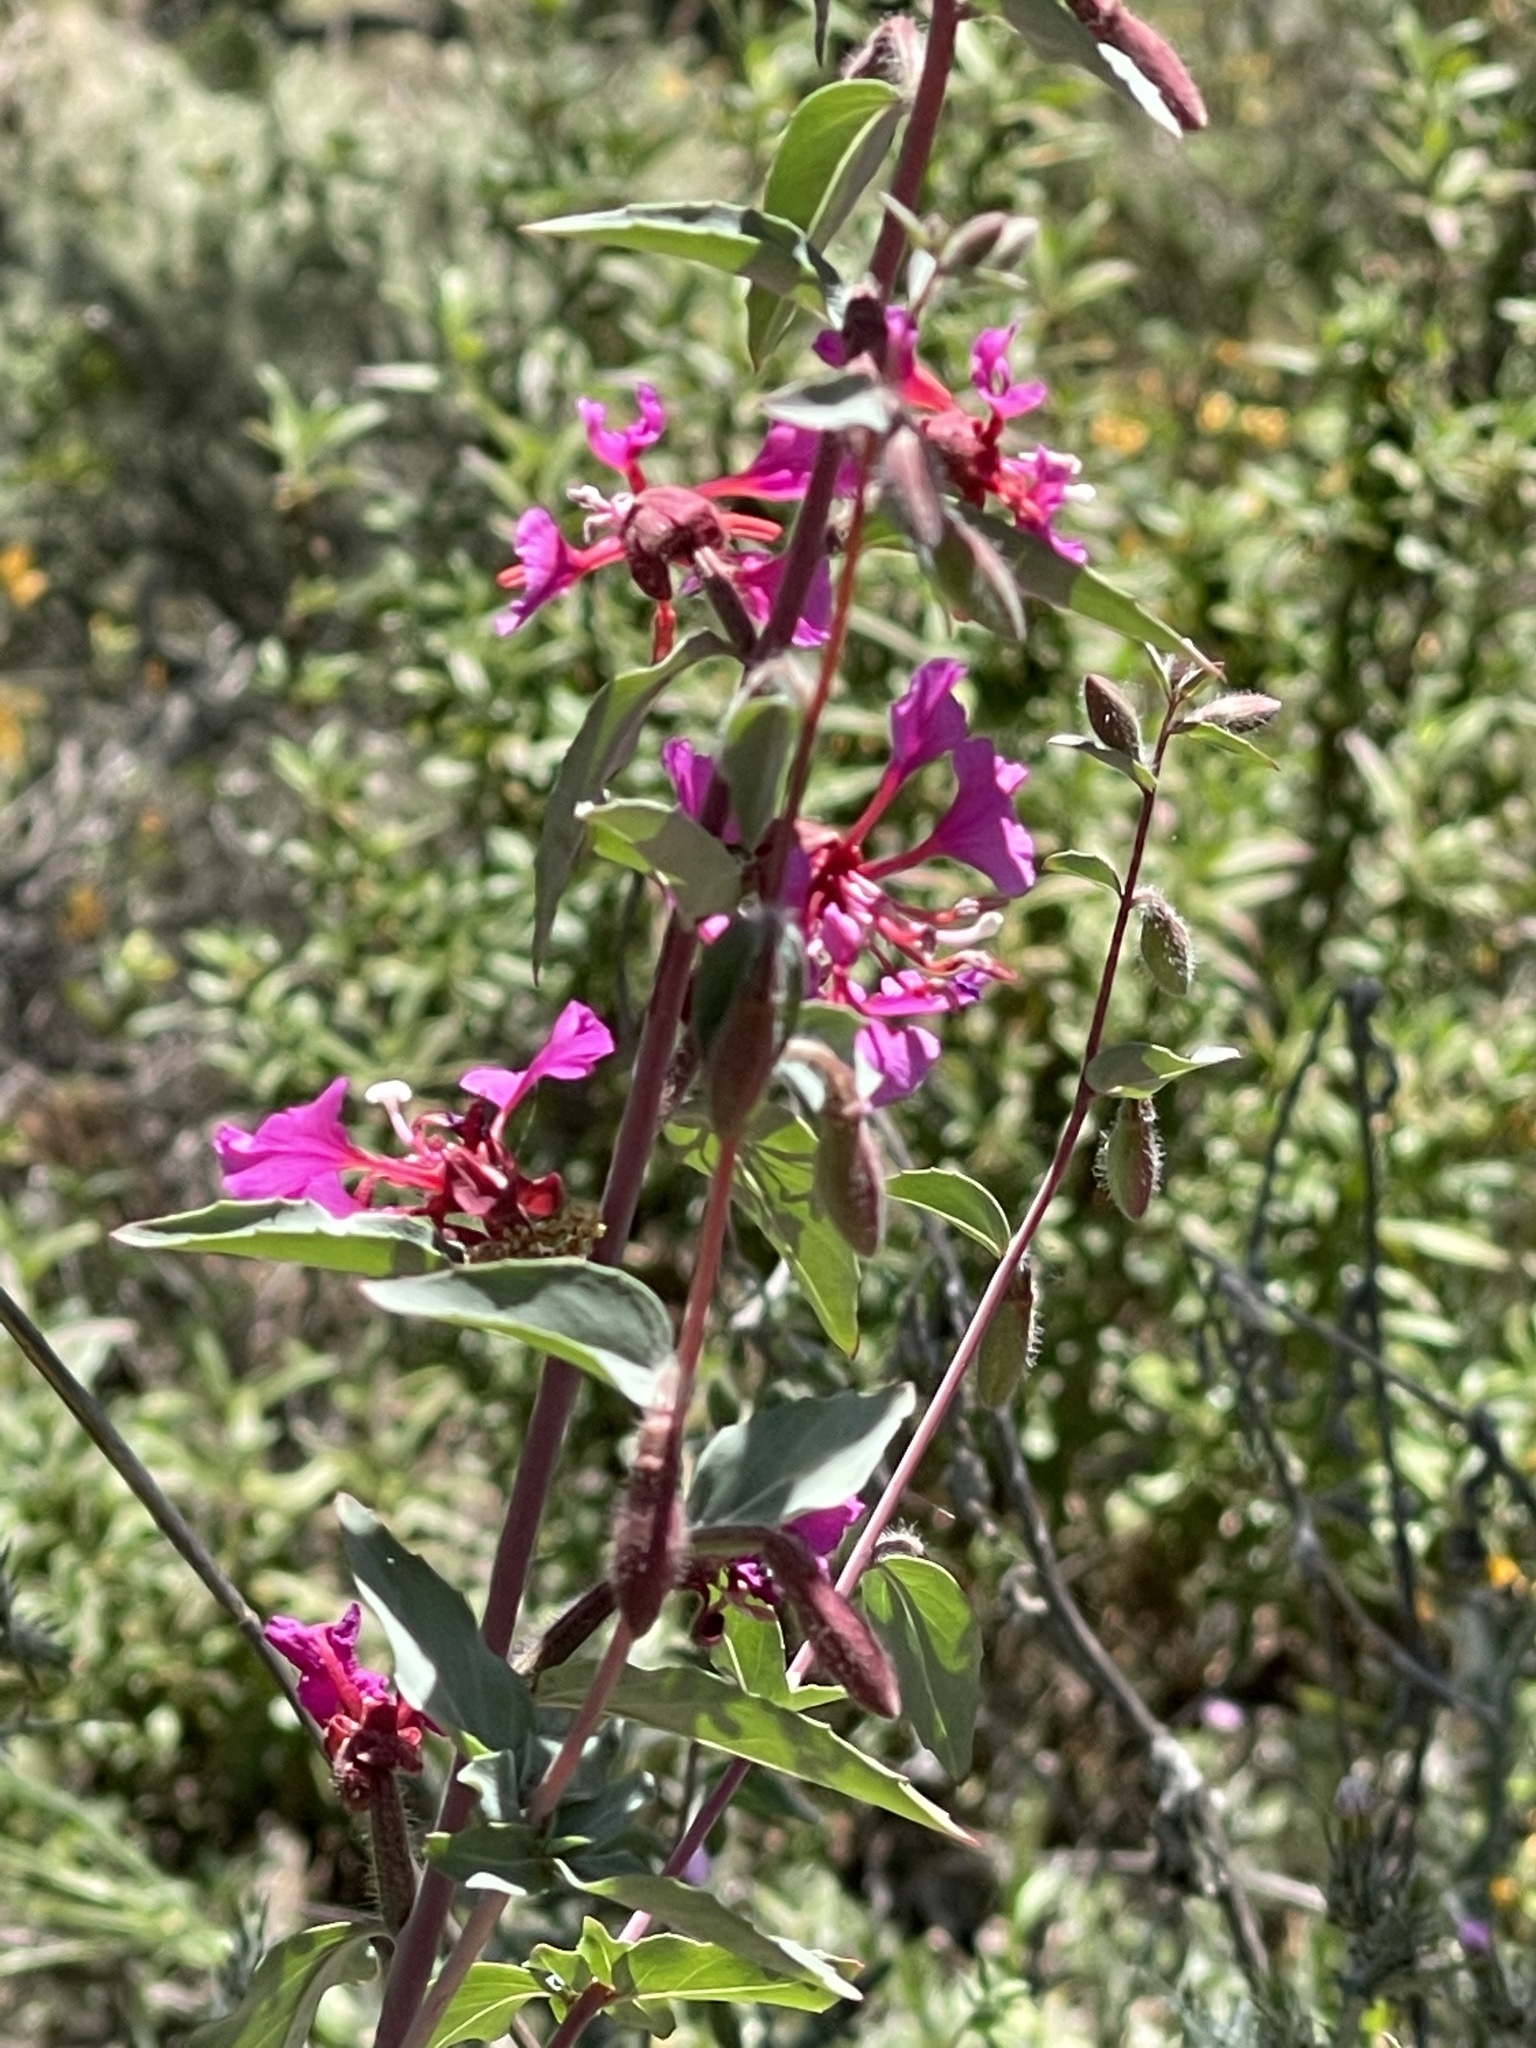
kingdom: Plantae
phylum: Tracheophyta
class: Magnoliopsida
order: Myrtales
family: Onagraceae
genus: Clarkia
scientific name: Clarkia unguiculata
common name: Clarkia
